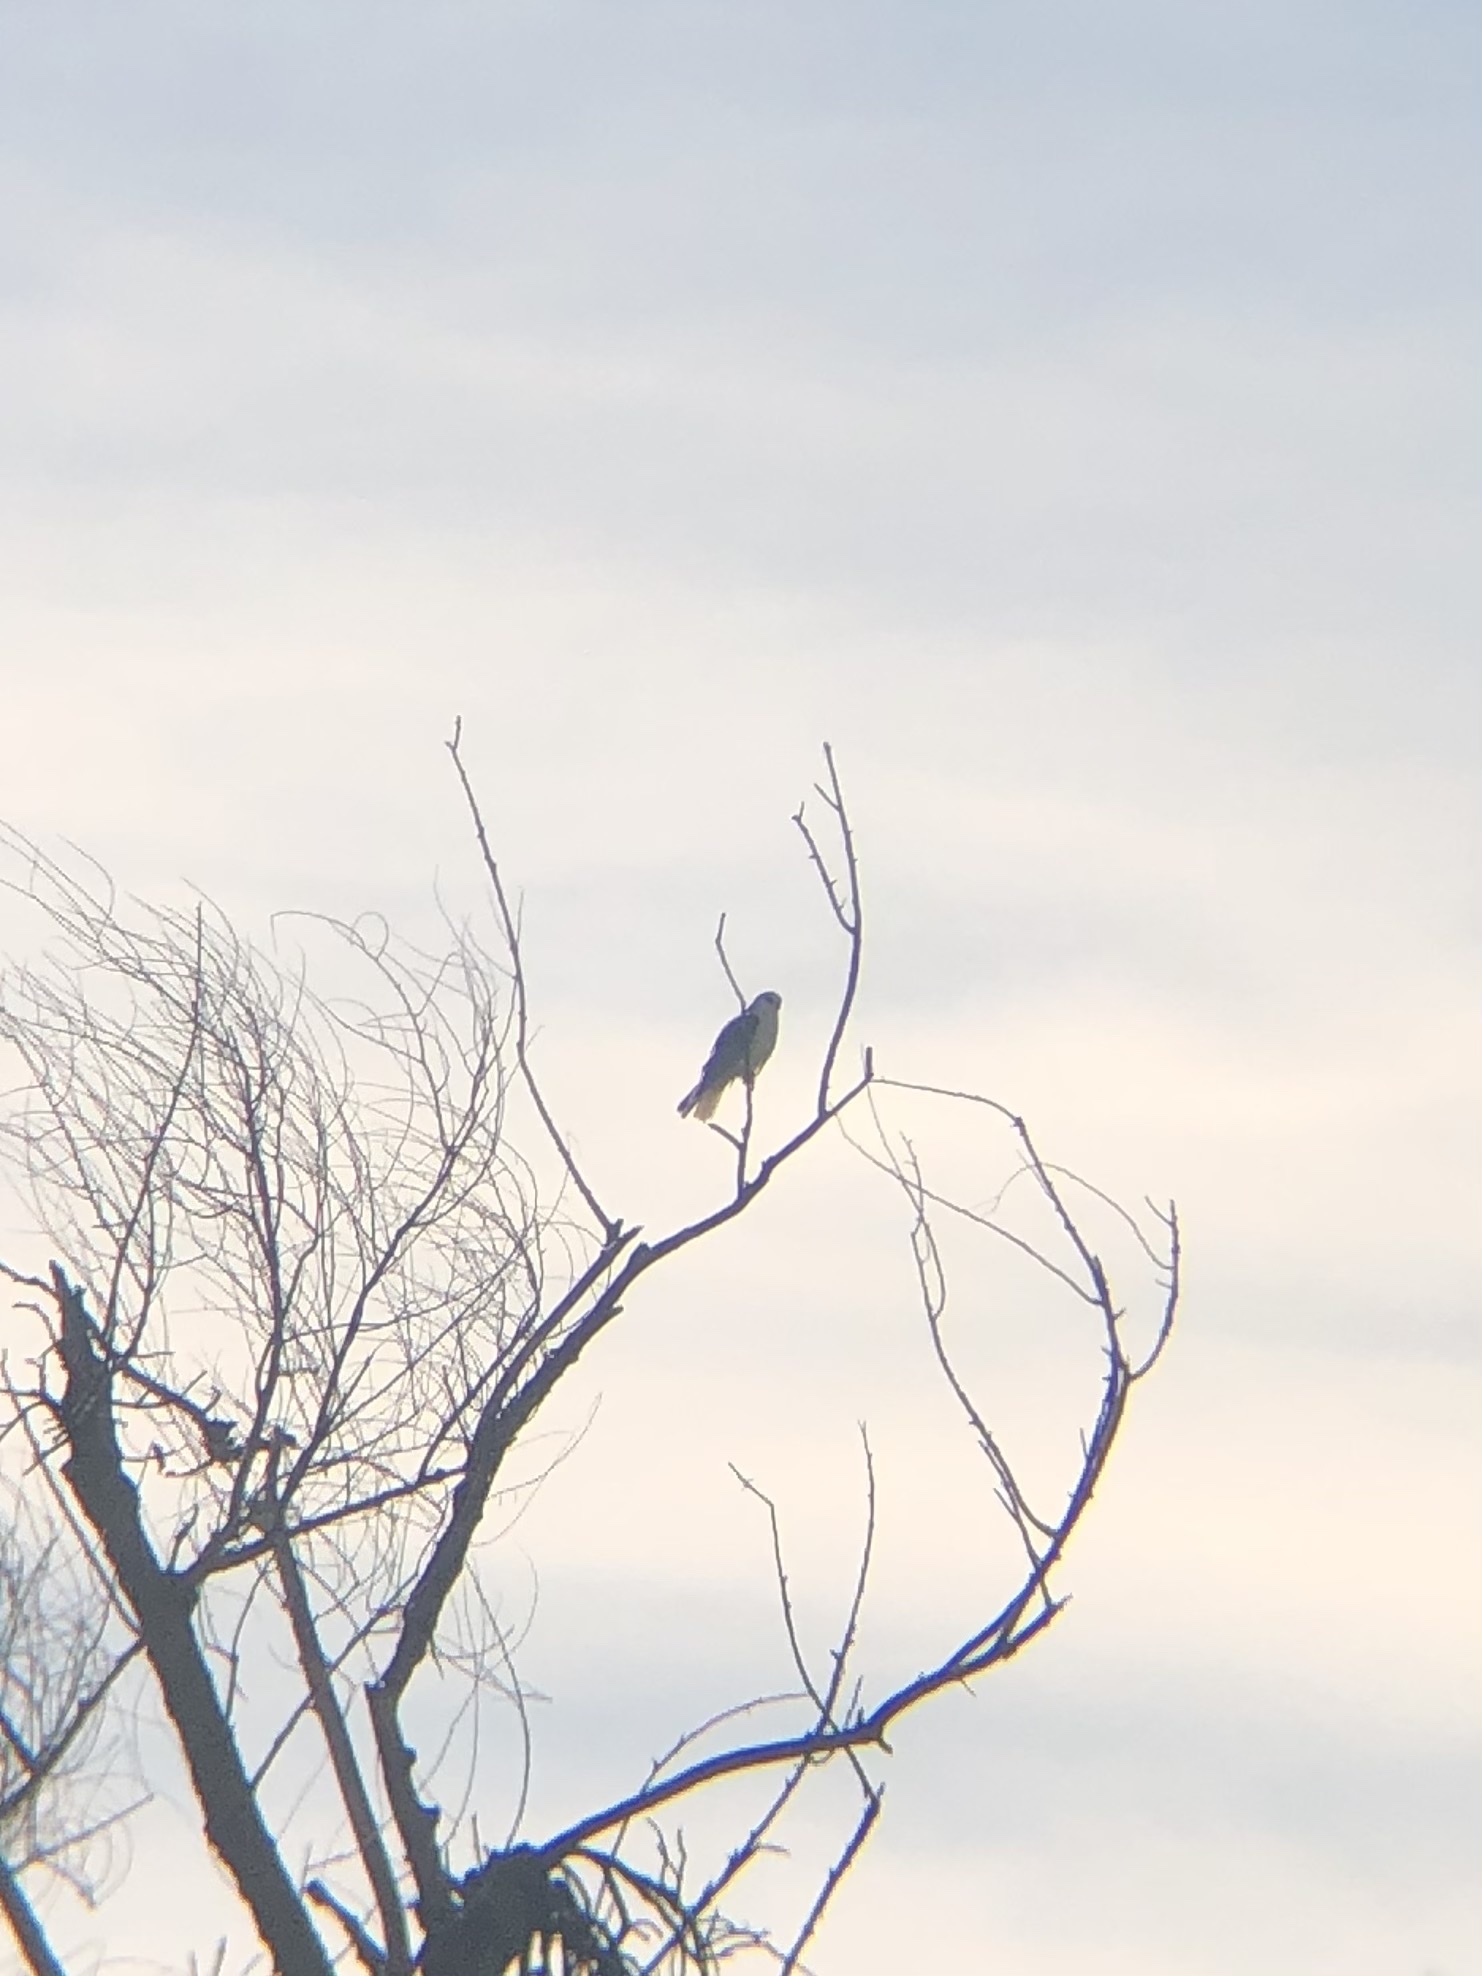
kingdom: Animalia
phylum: Chordata
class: Aves
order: Accipitriformes
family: Accipitridae
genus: Elanus
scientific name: Elanus leucurus
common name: White-tailed kite
